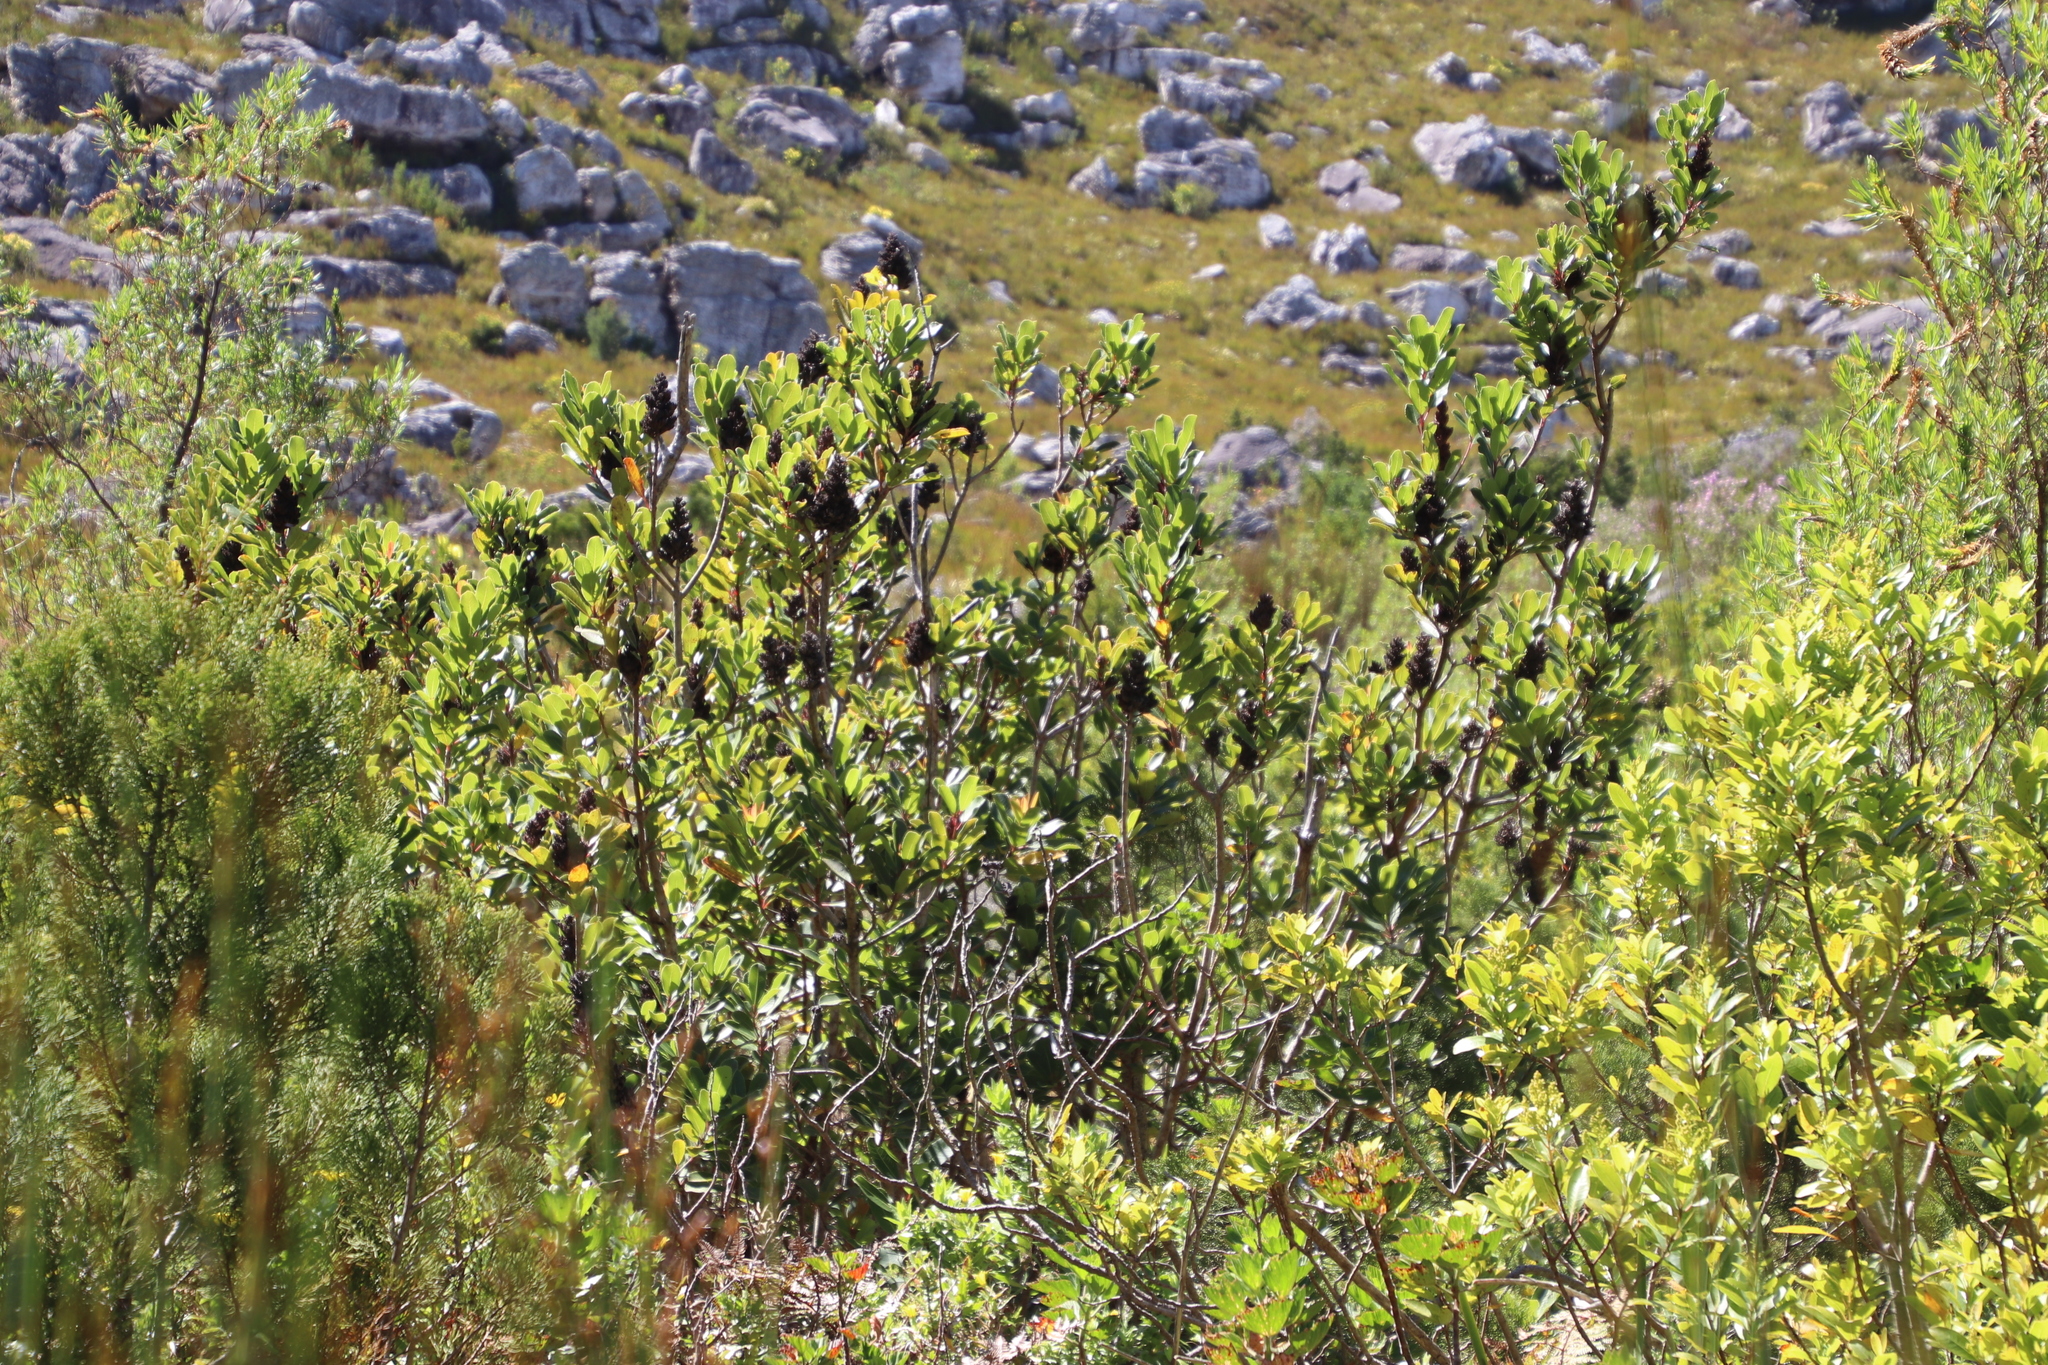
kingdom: Plantae
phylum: Tracheophyta
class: Magnoliopsida
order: Sapindales
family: Anacardiaceae
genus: Laurophyllus
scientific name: Laurophyllus capensis
